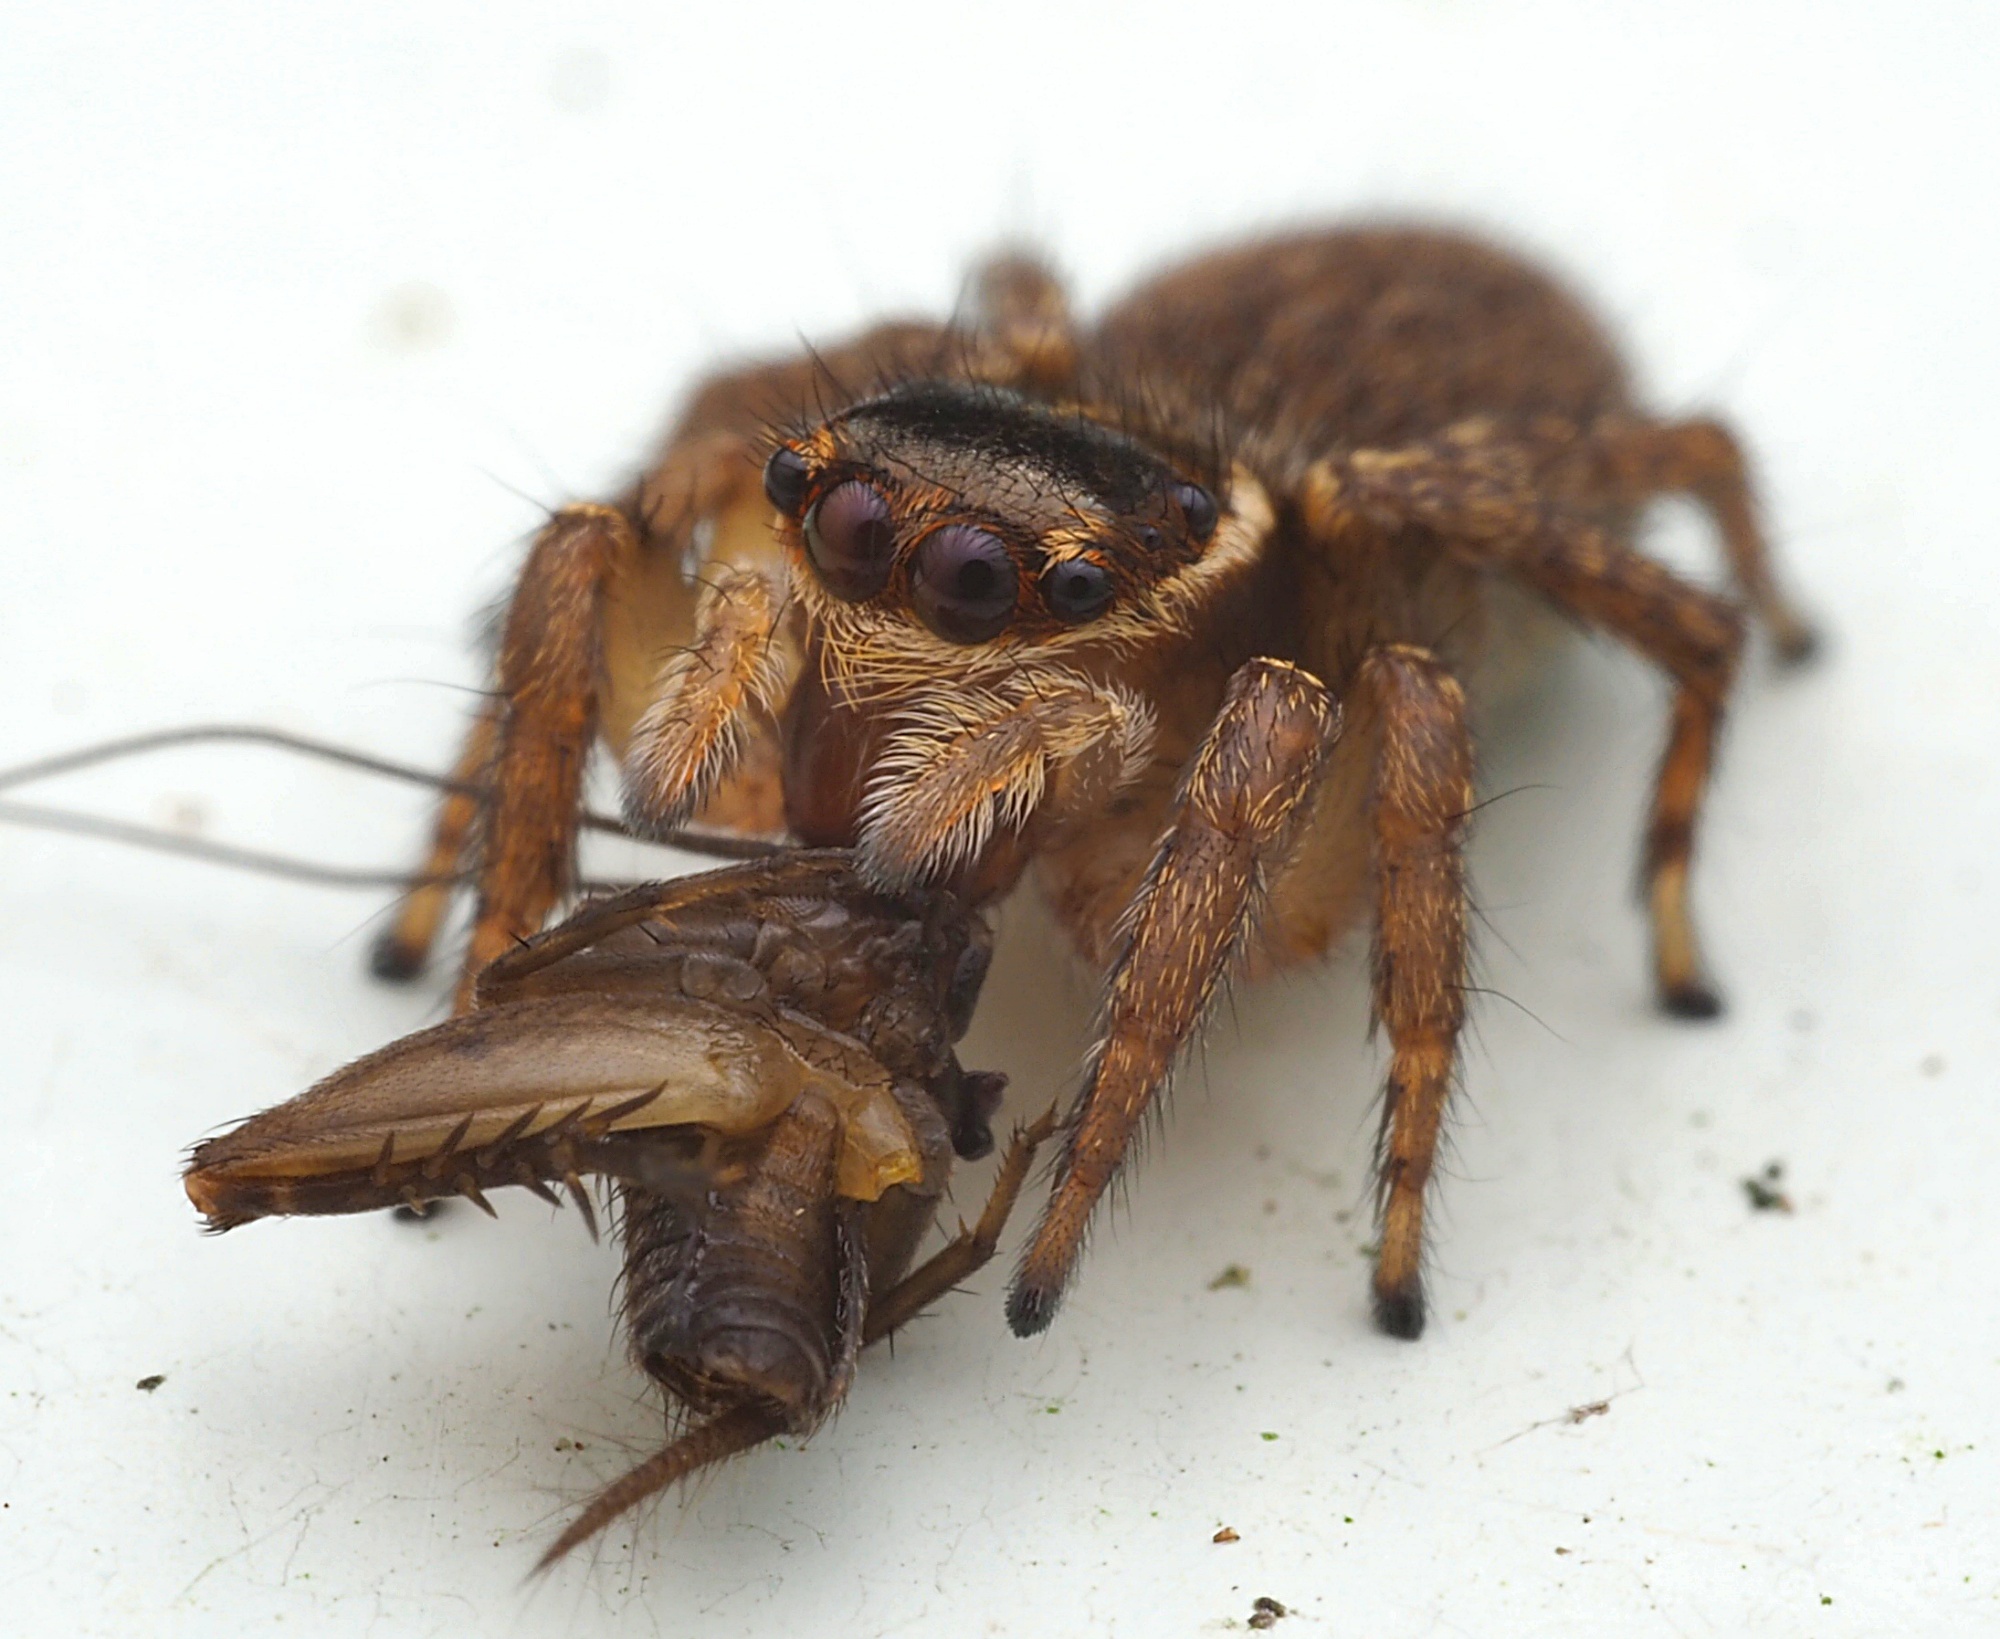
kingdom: Animalia
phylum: Arthropoda
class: Arachnida
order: Araneae
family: Salticidae
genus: Maratus
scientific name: Maratus griseus
